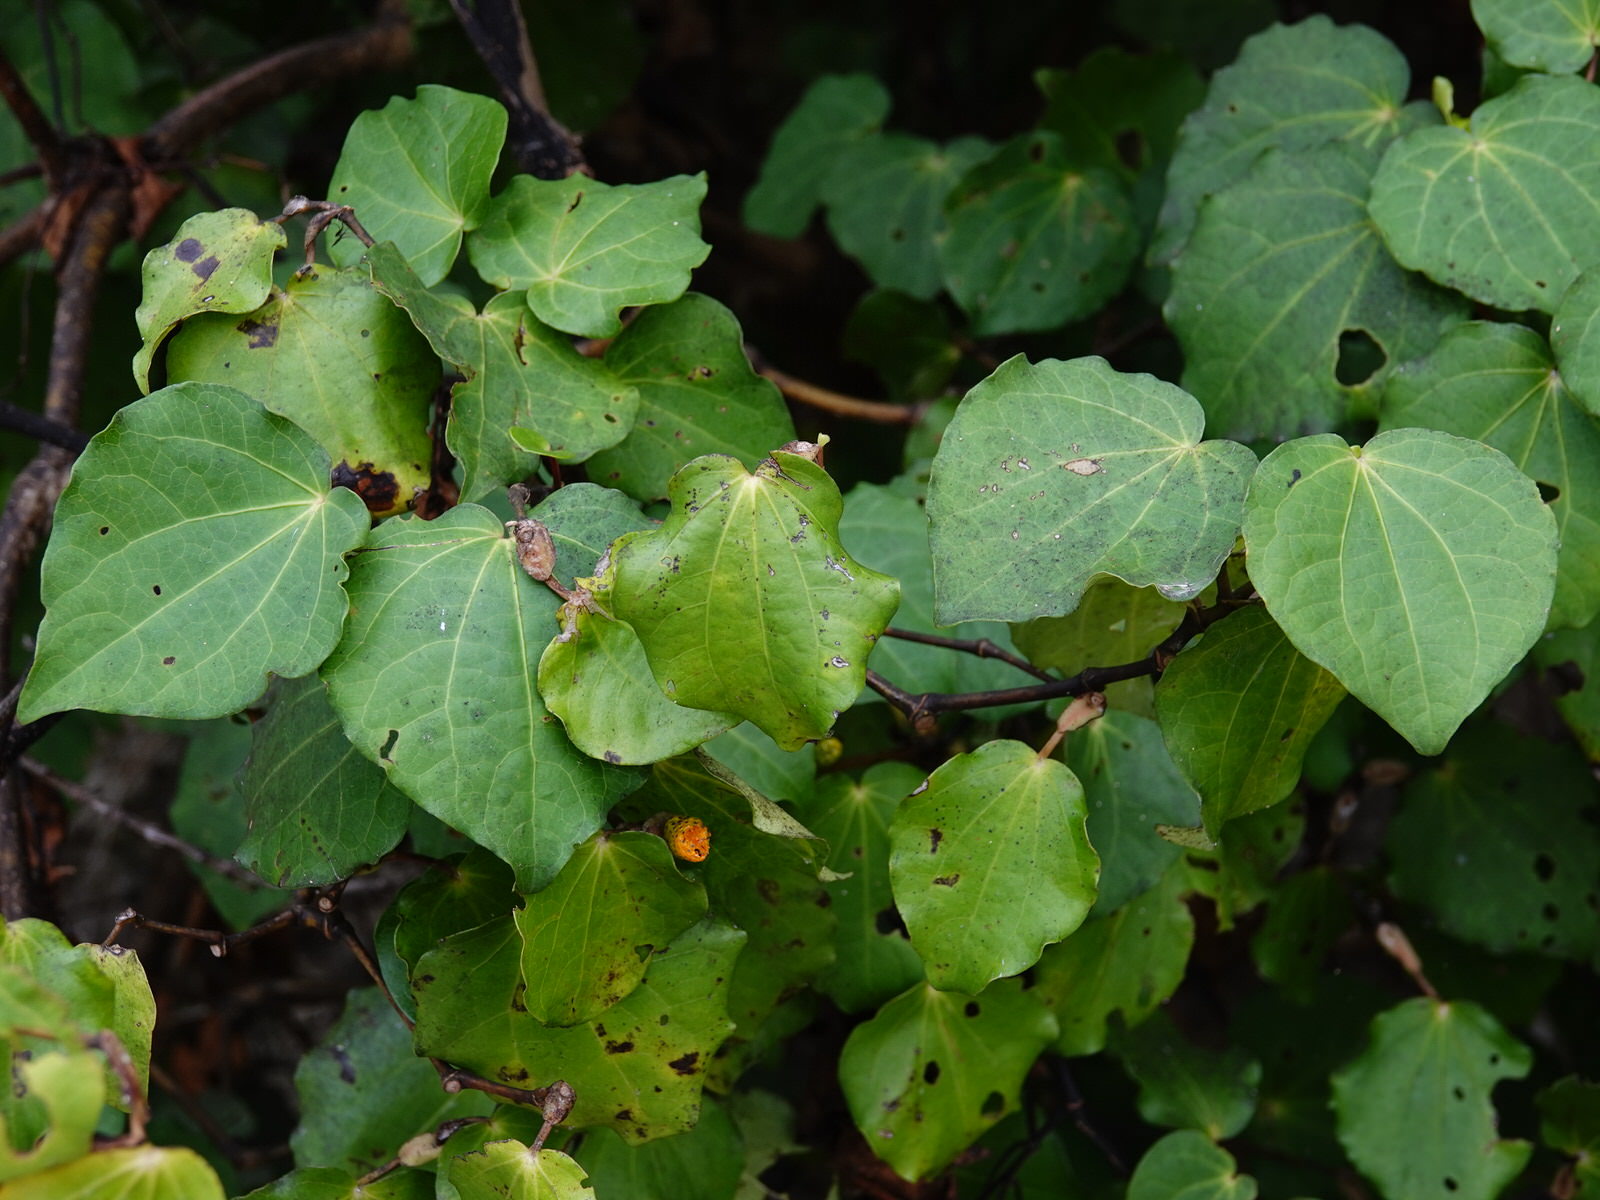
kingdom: Plantae
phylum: Tracheophyta
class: Magnoliopsida
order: Piperales
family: Piperaceae
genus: Macropiper
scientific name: Macropiper excelsum
